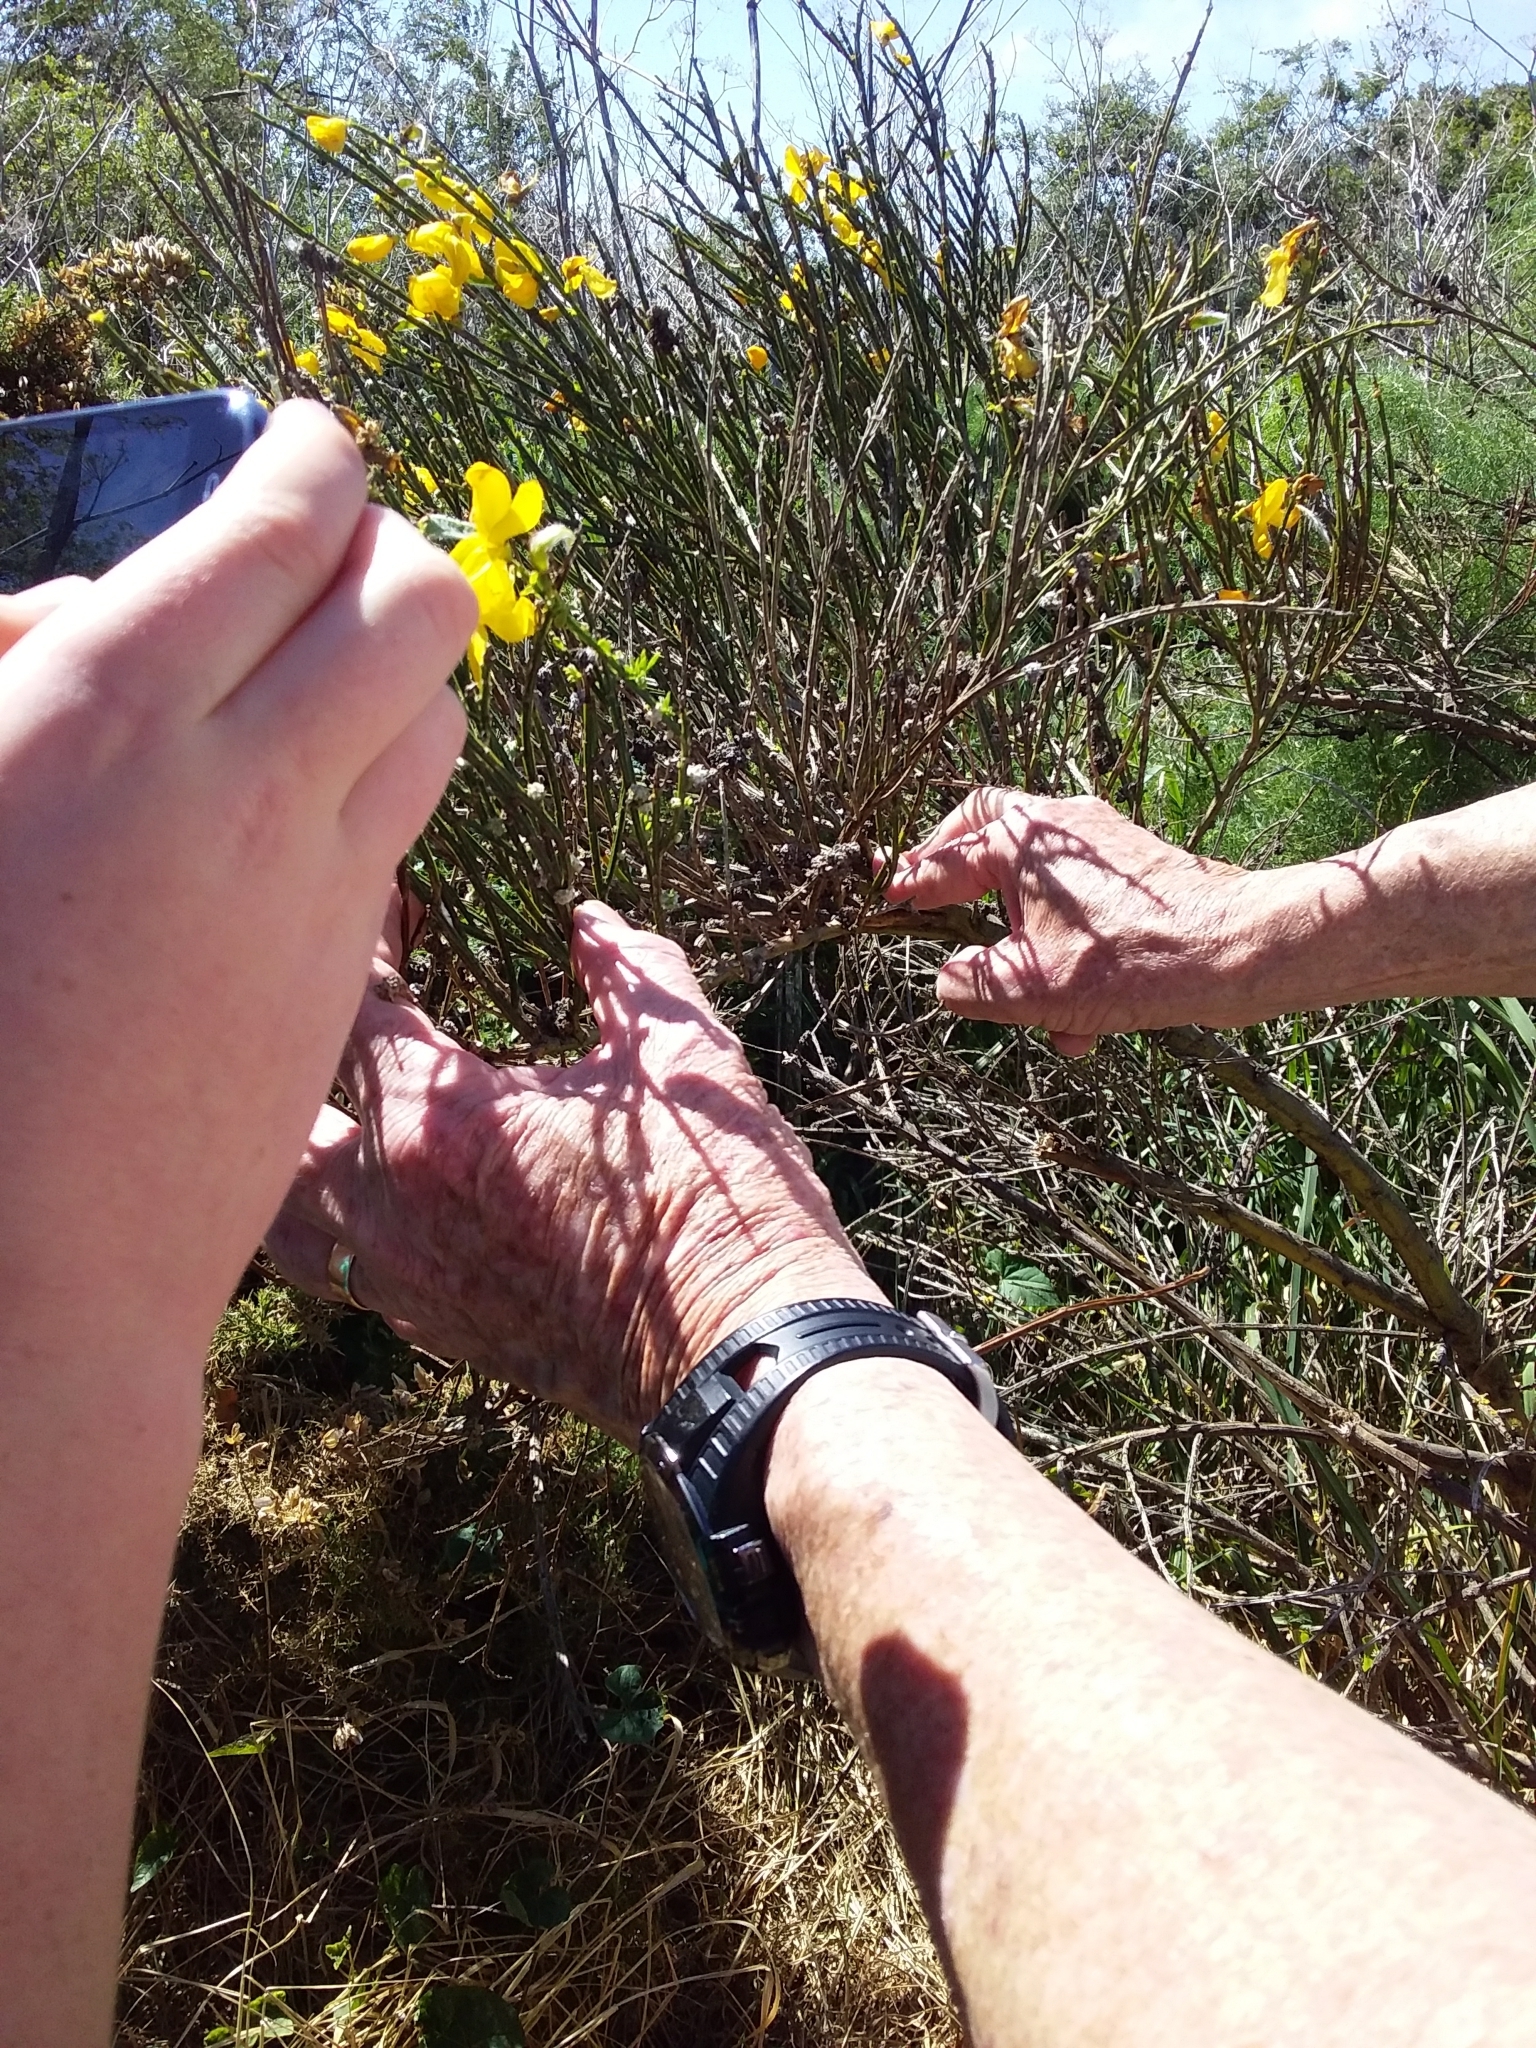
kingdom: Plantae
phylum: Tracheophyta
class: Magnoliopsida
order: Fabales
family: Fabaceae
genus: Cytisus
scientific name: Cytisus scoparius
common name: Scotch broom
